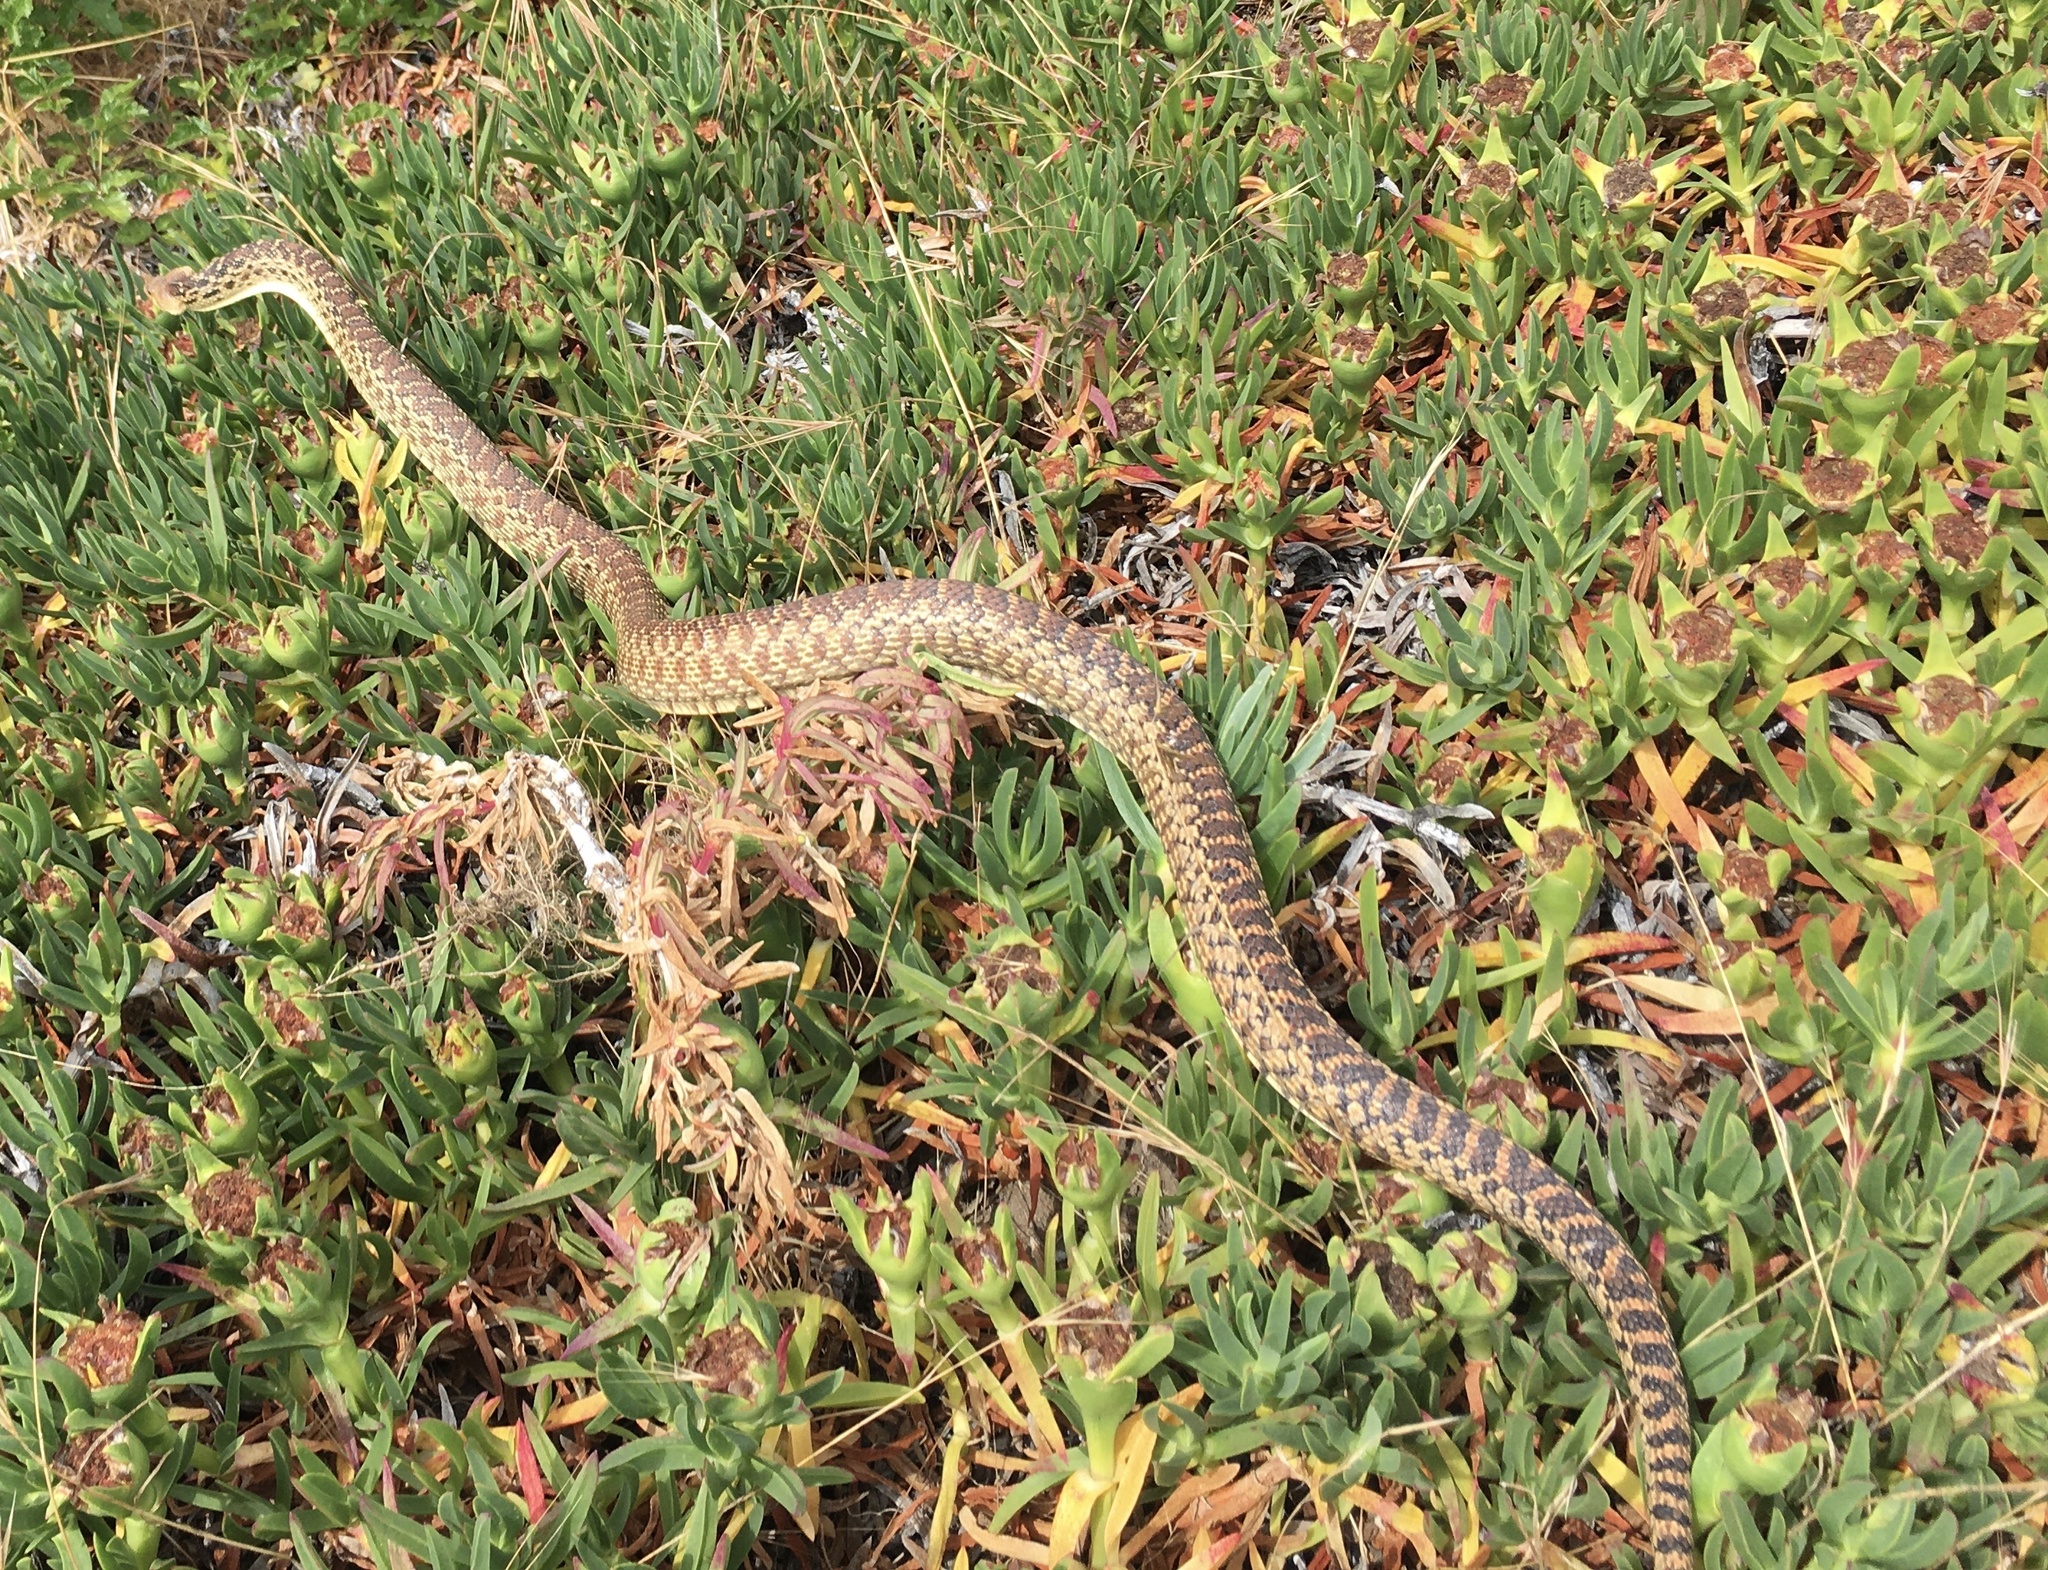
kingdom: Animalia
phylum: Chordata
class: Squamata
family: Colubridae
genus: Pituophis
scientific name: Pituophis catenifer
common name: Gopher snake
